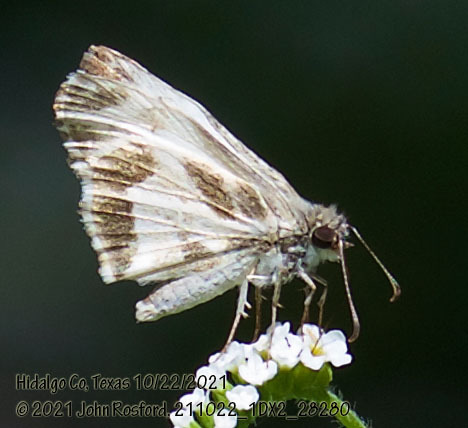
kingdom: Animalia
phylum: Arthropoda
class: Insecta
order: Lepidoptera
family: Hesperiidae
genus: Heliopetes
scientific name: Heliopetes macaira
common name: Turk's-cap white-skipper
